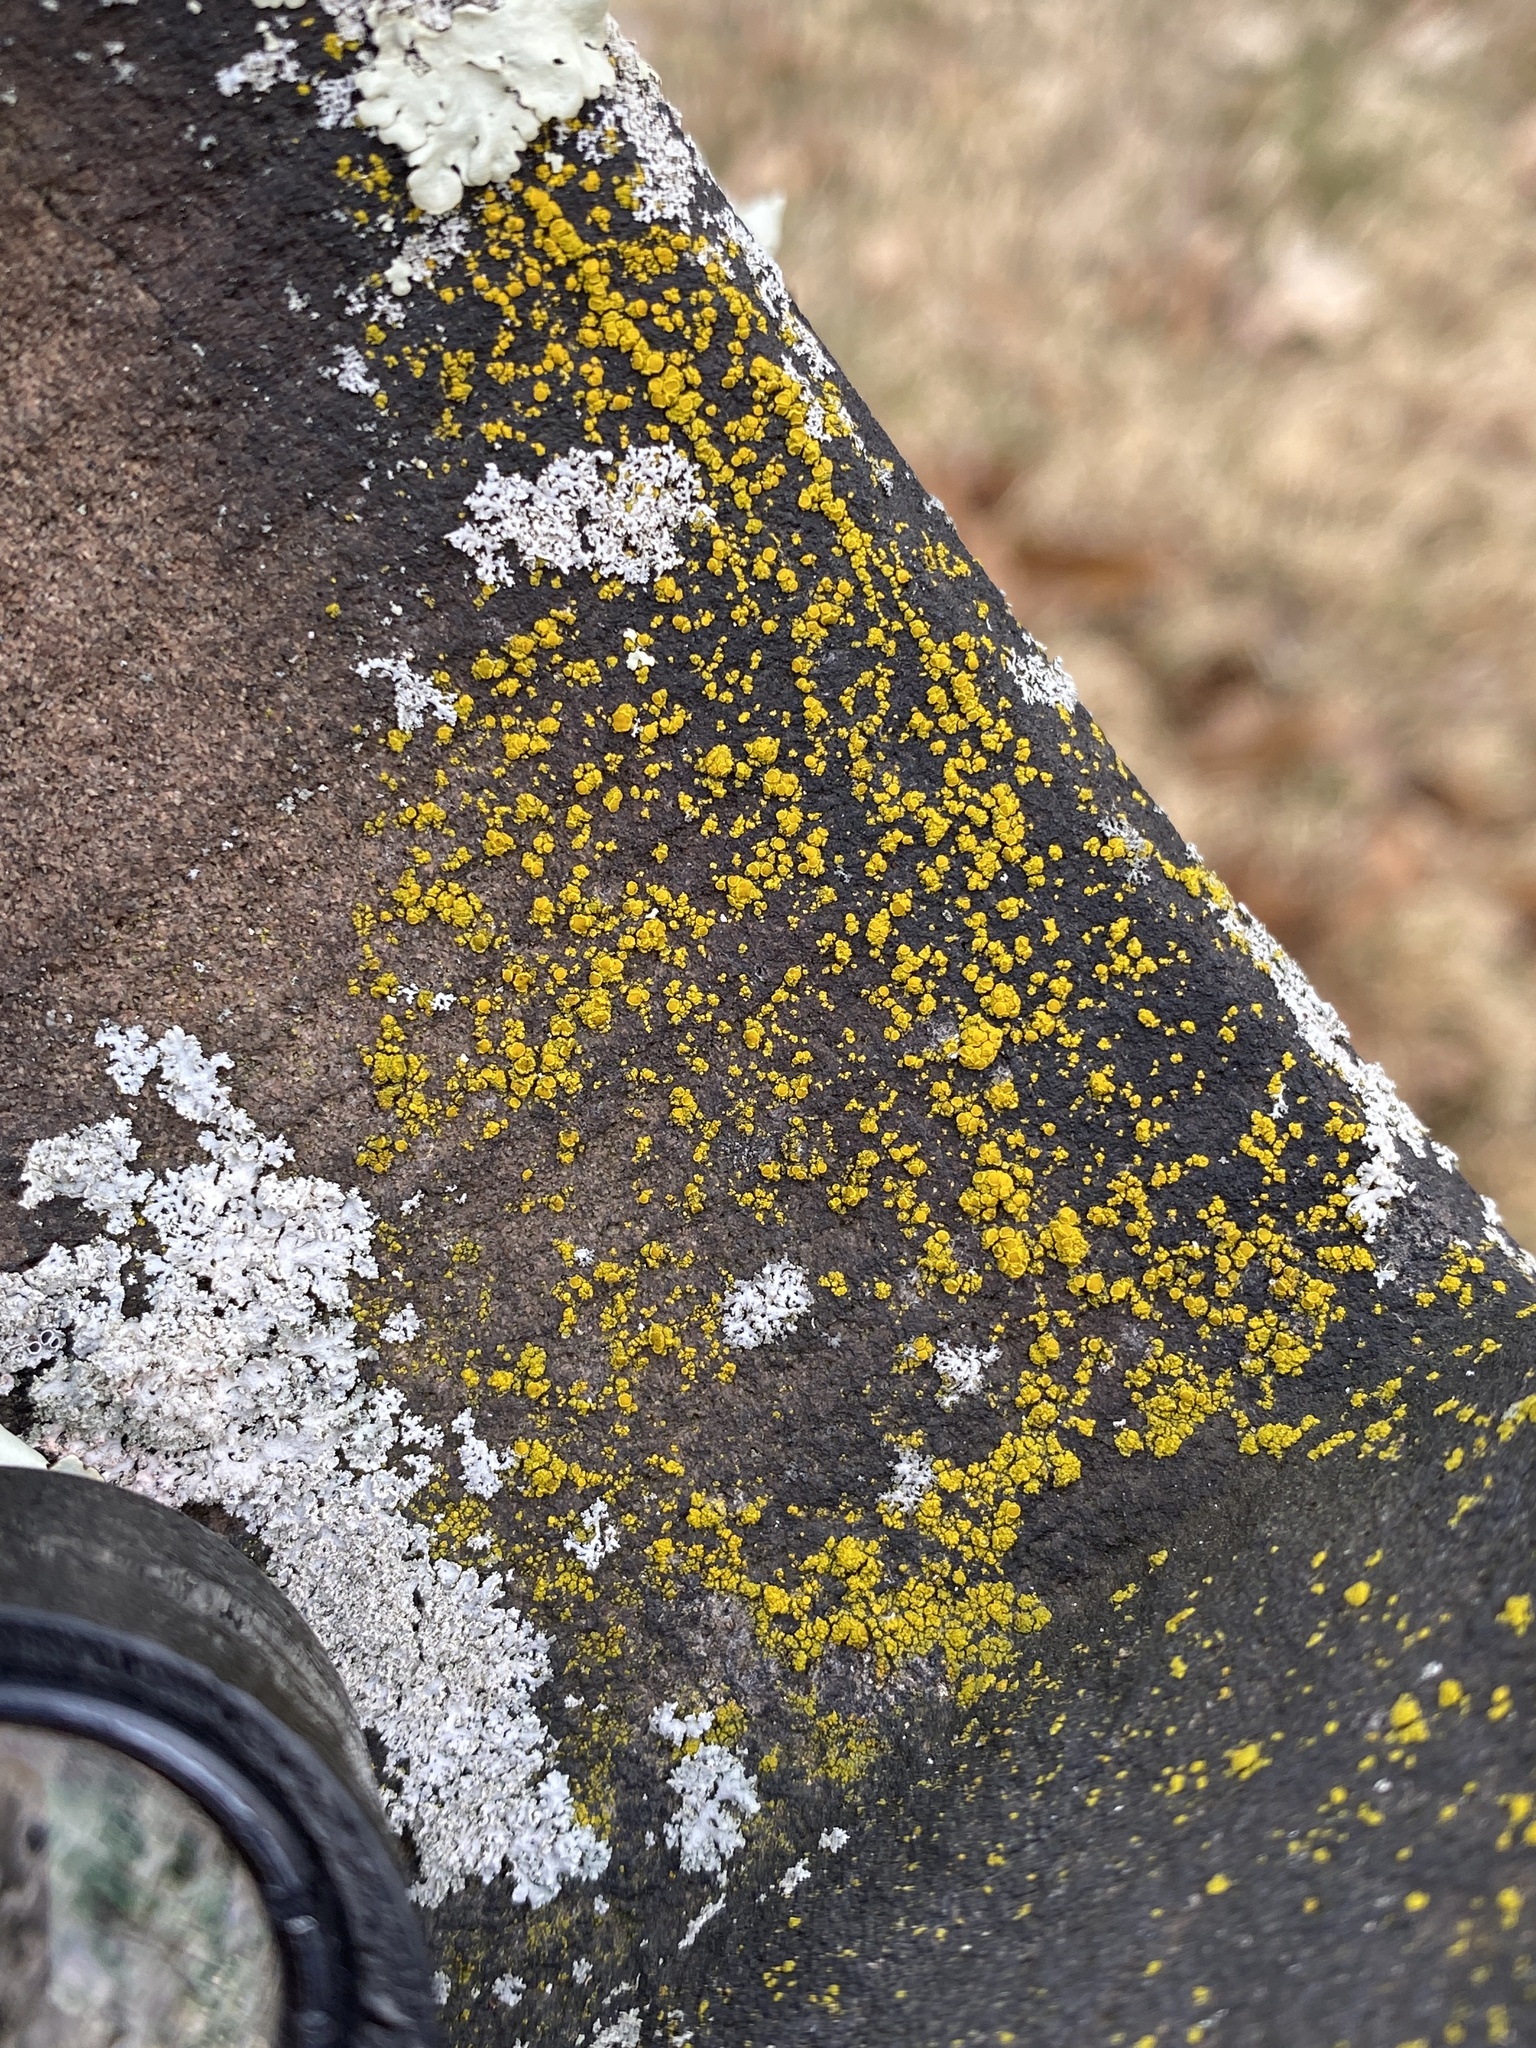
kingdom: Fungi
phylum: Ascomycota
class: Candelariomycetes
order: Candelariales
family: Candelariaceae
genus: Candelariella
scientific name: Candelariella vitellina
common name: Common goldspeck
